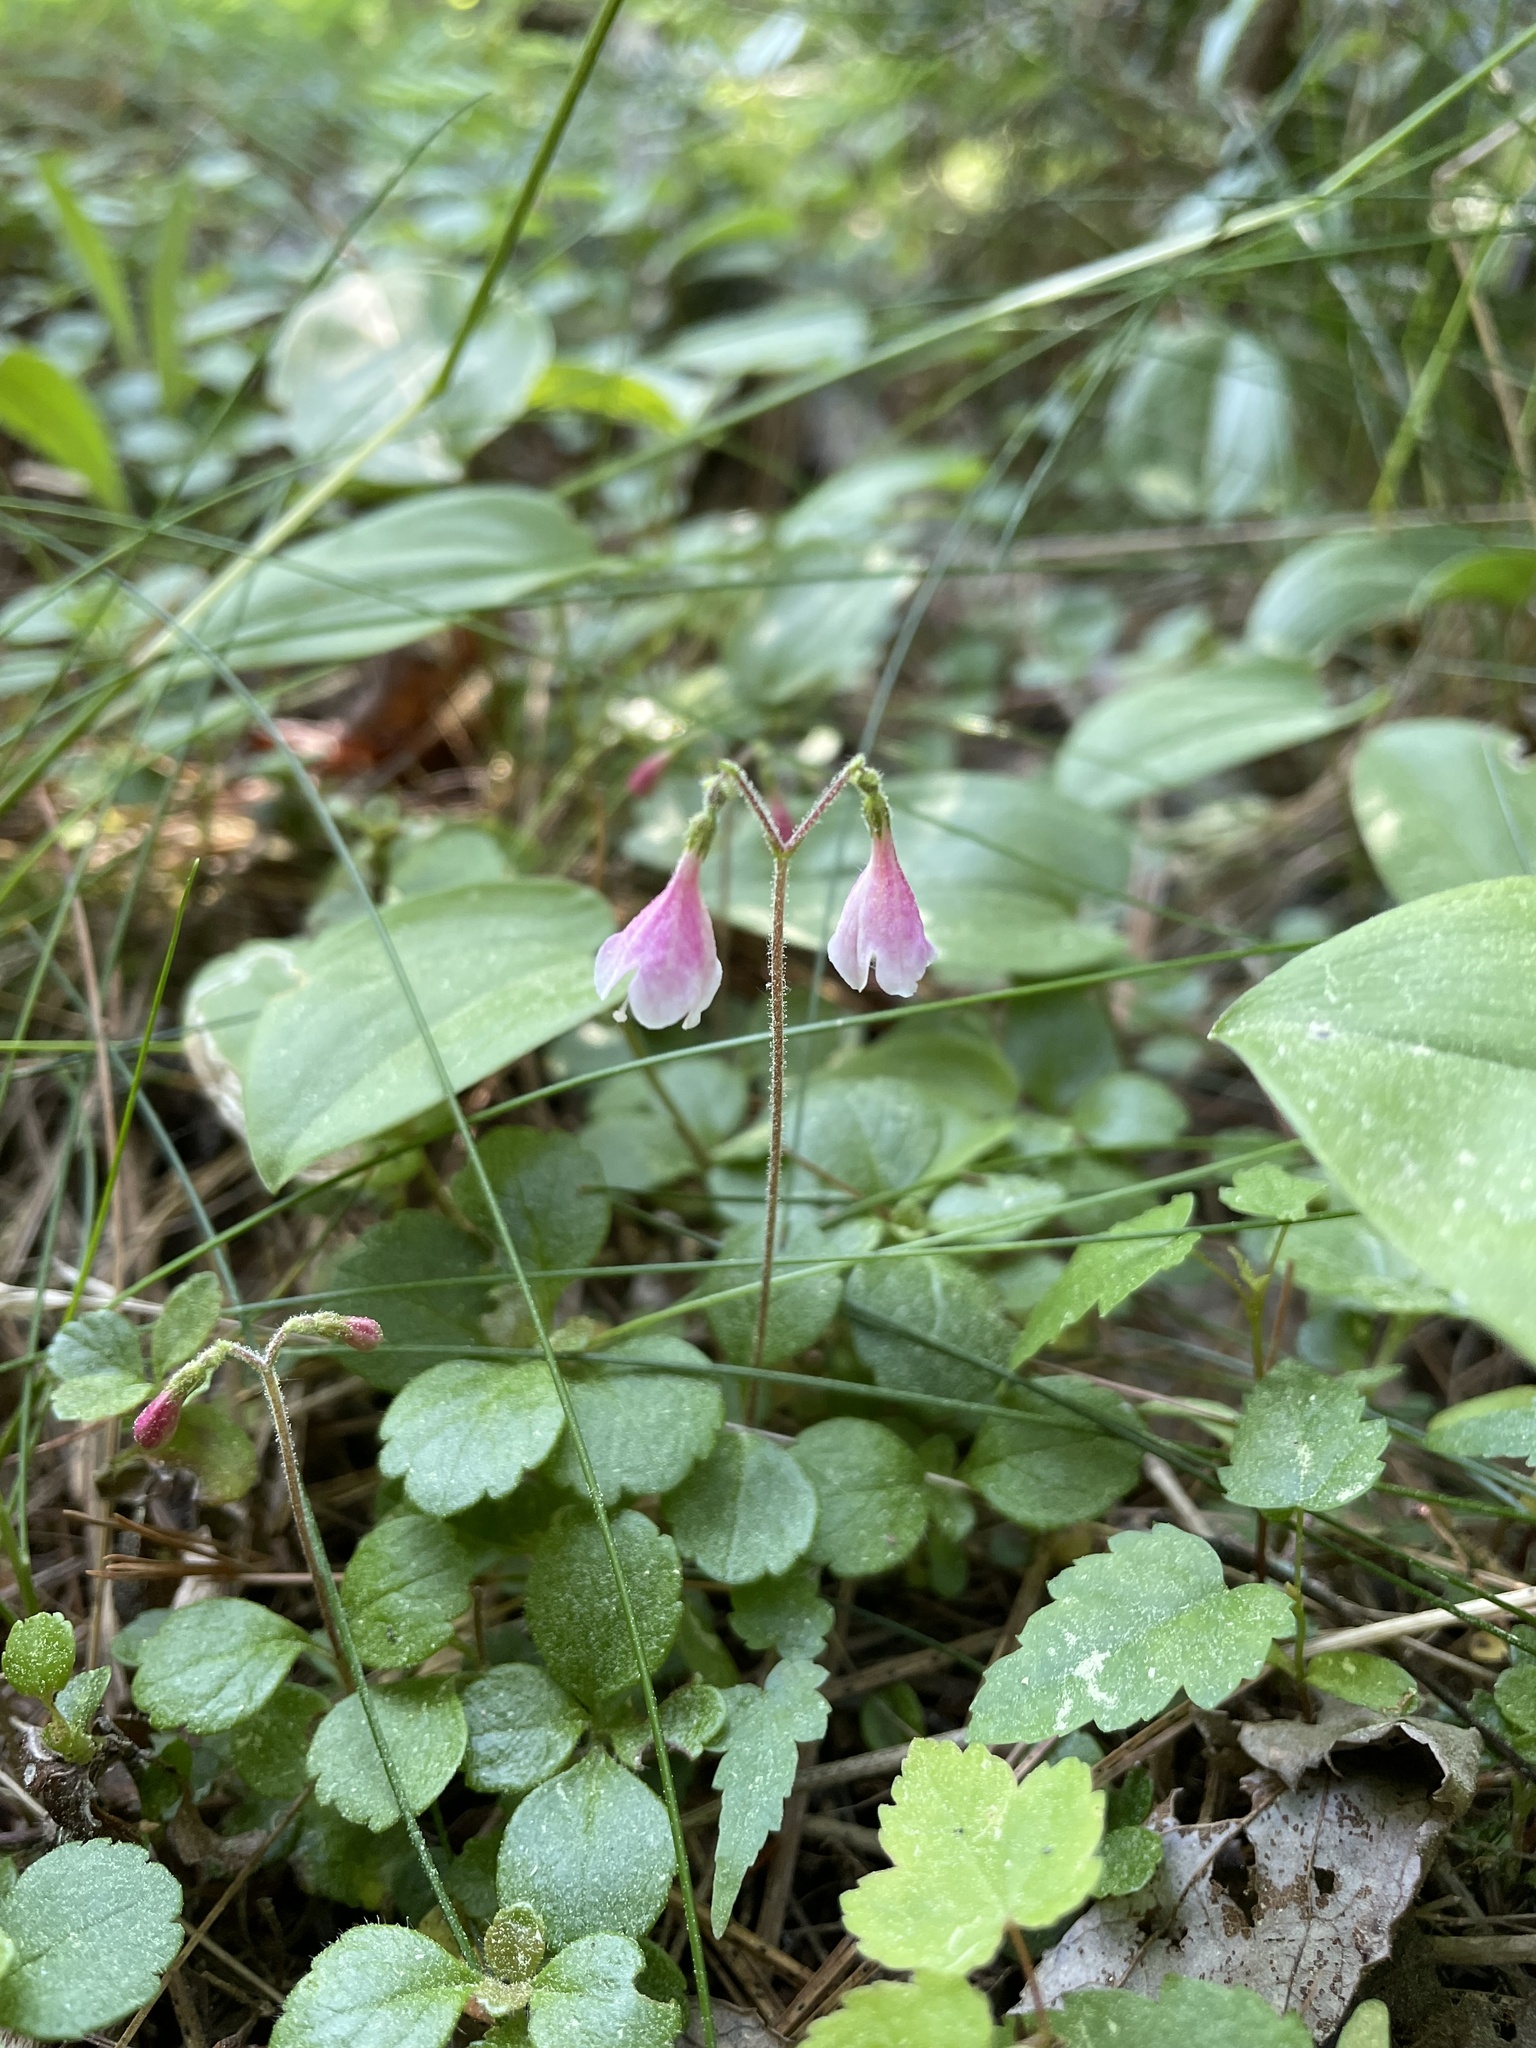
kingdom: Plantae
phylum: Tracheophyta
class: Magnoliopsida
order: Dipsacales
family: Caprifoliaceae
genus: Linnaea
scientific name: Linnaea borealis
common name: Twinflower
